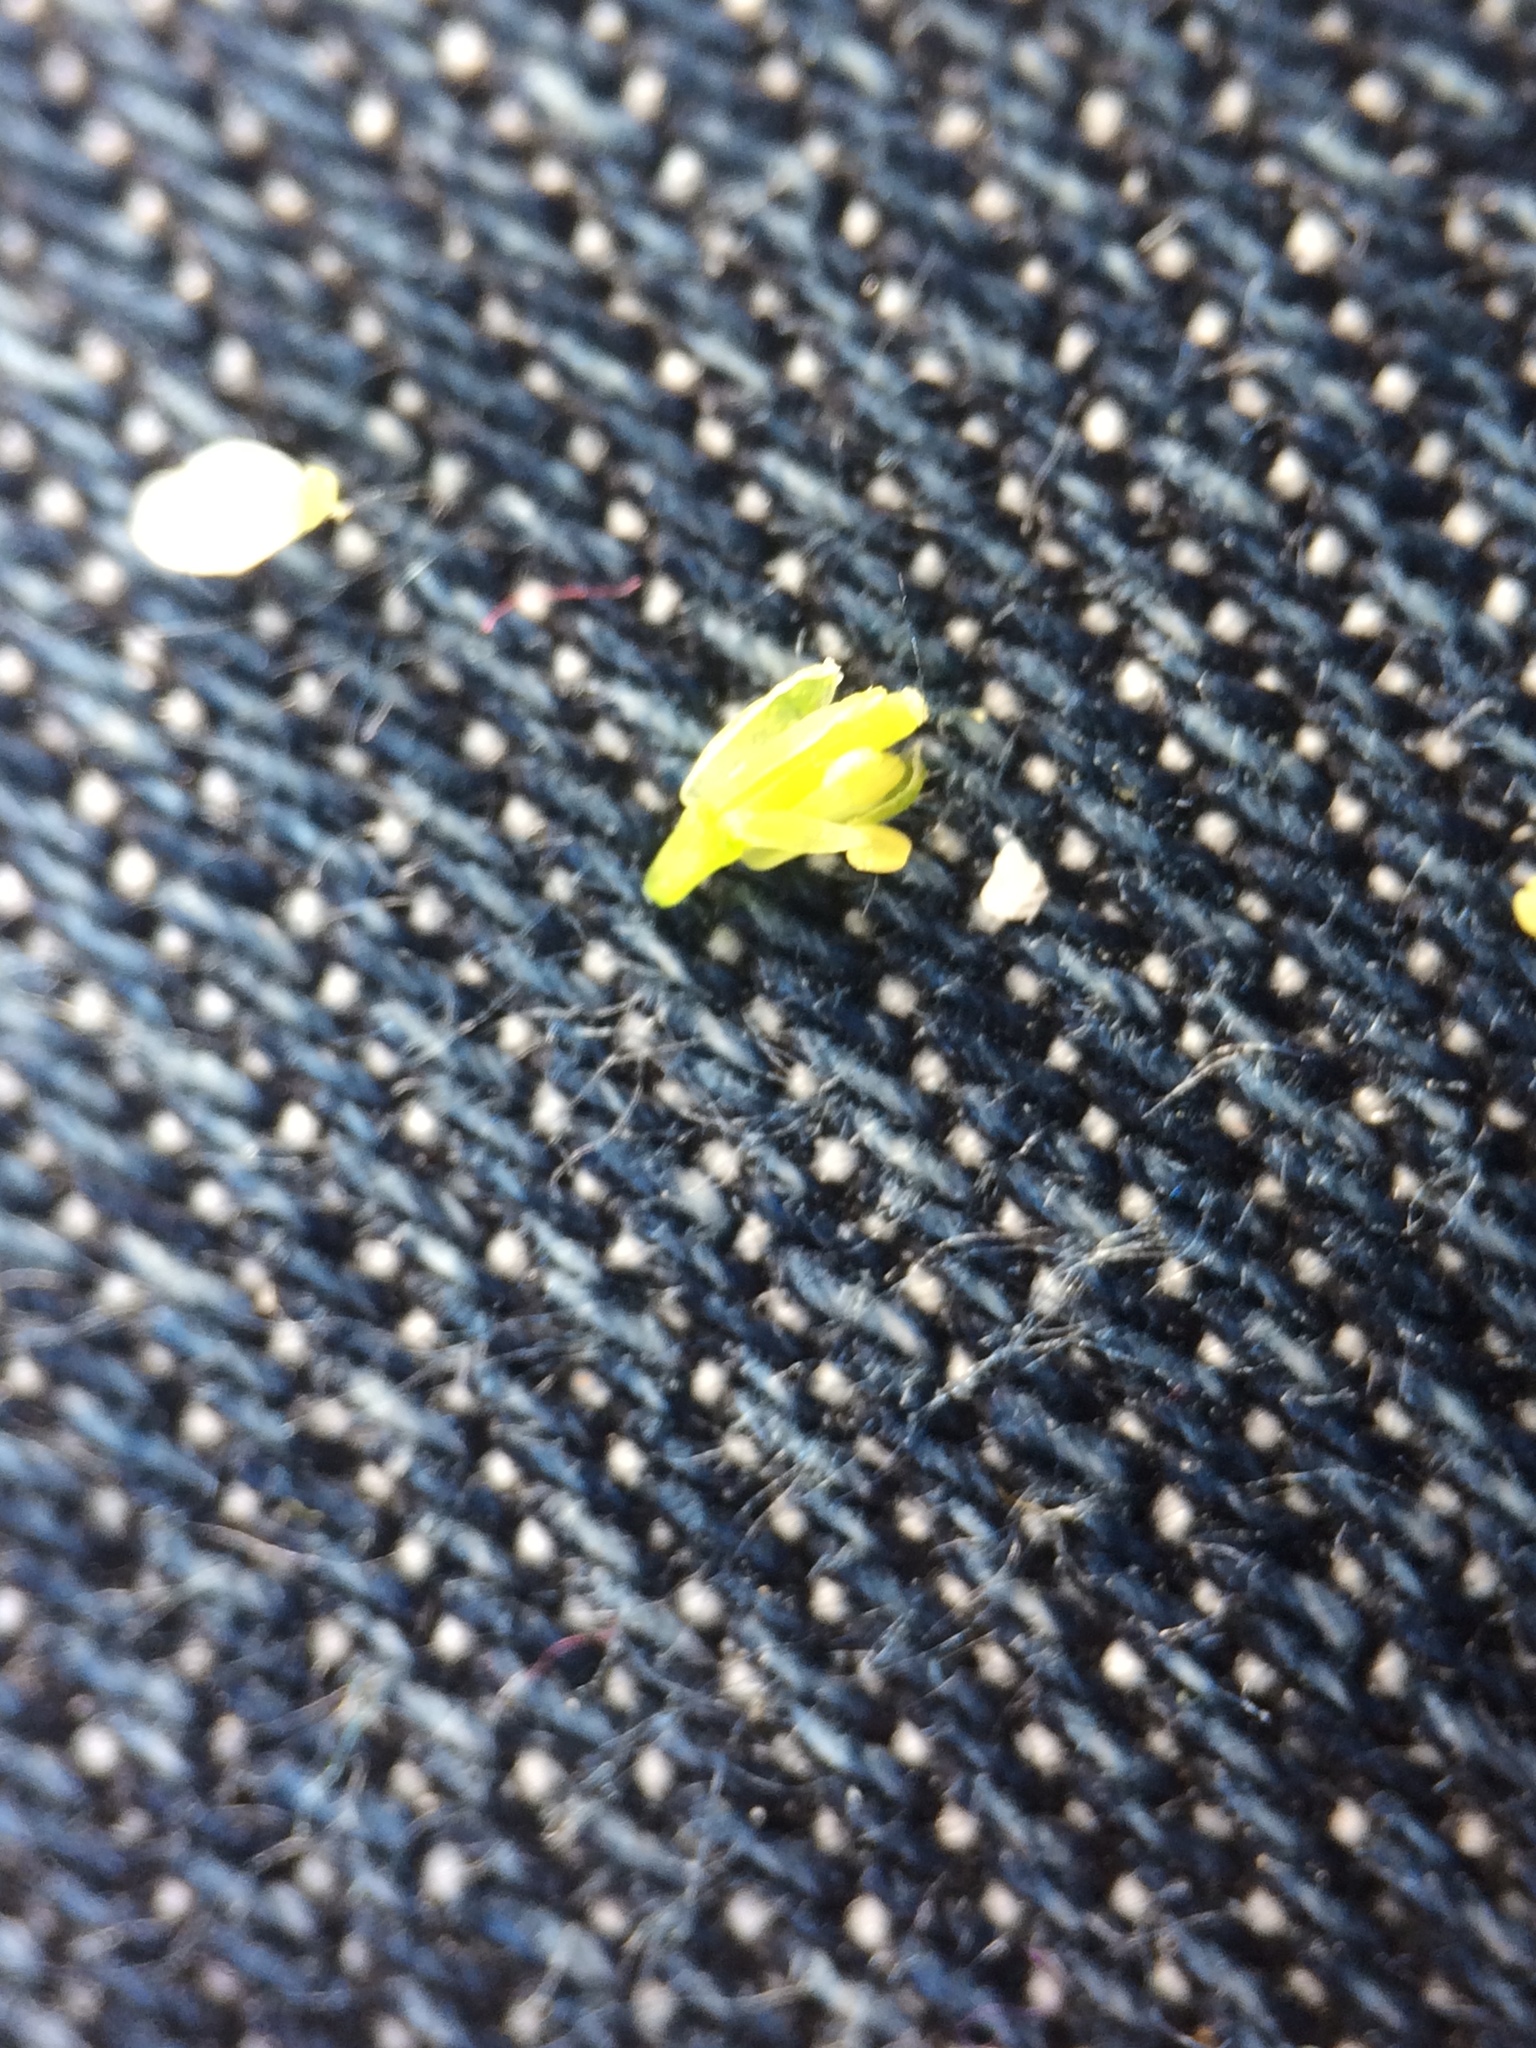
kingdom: Plantae
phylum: Tracheophyta
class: Magnoliopsida
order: Brassicales
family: Brassicaceae
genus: Cardamine
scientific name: Cardamine hirsuta
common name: Hairy bittercress
